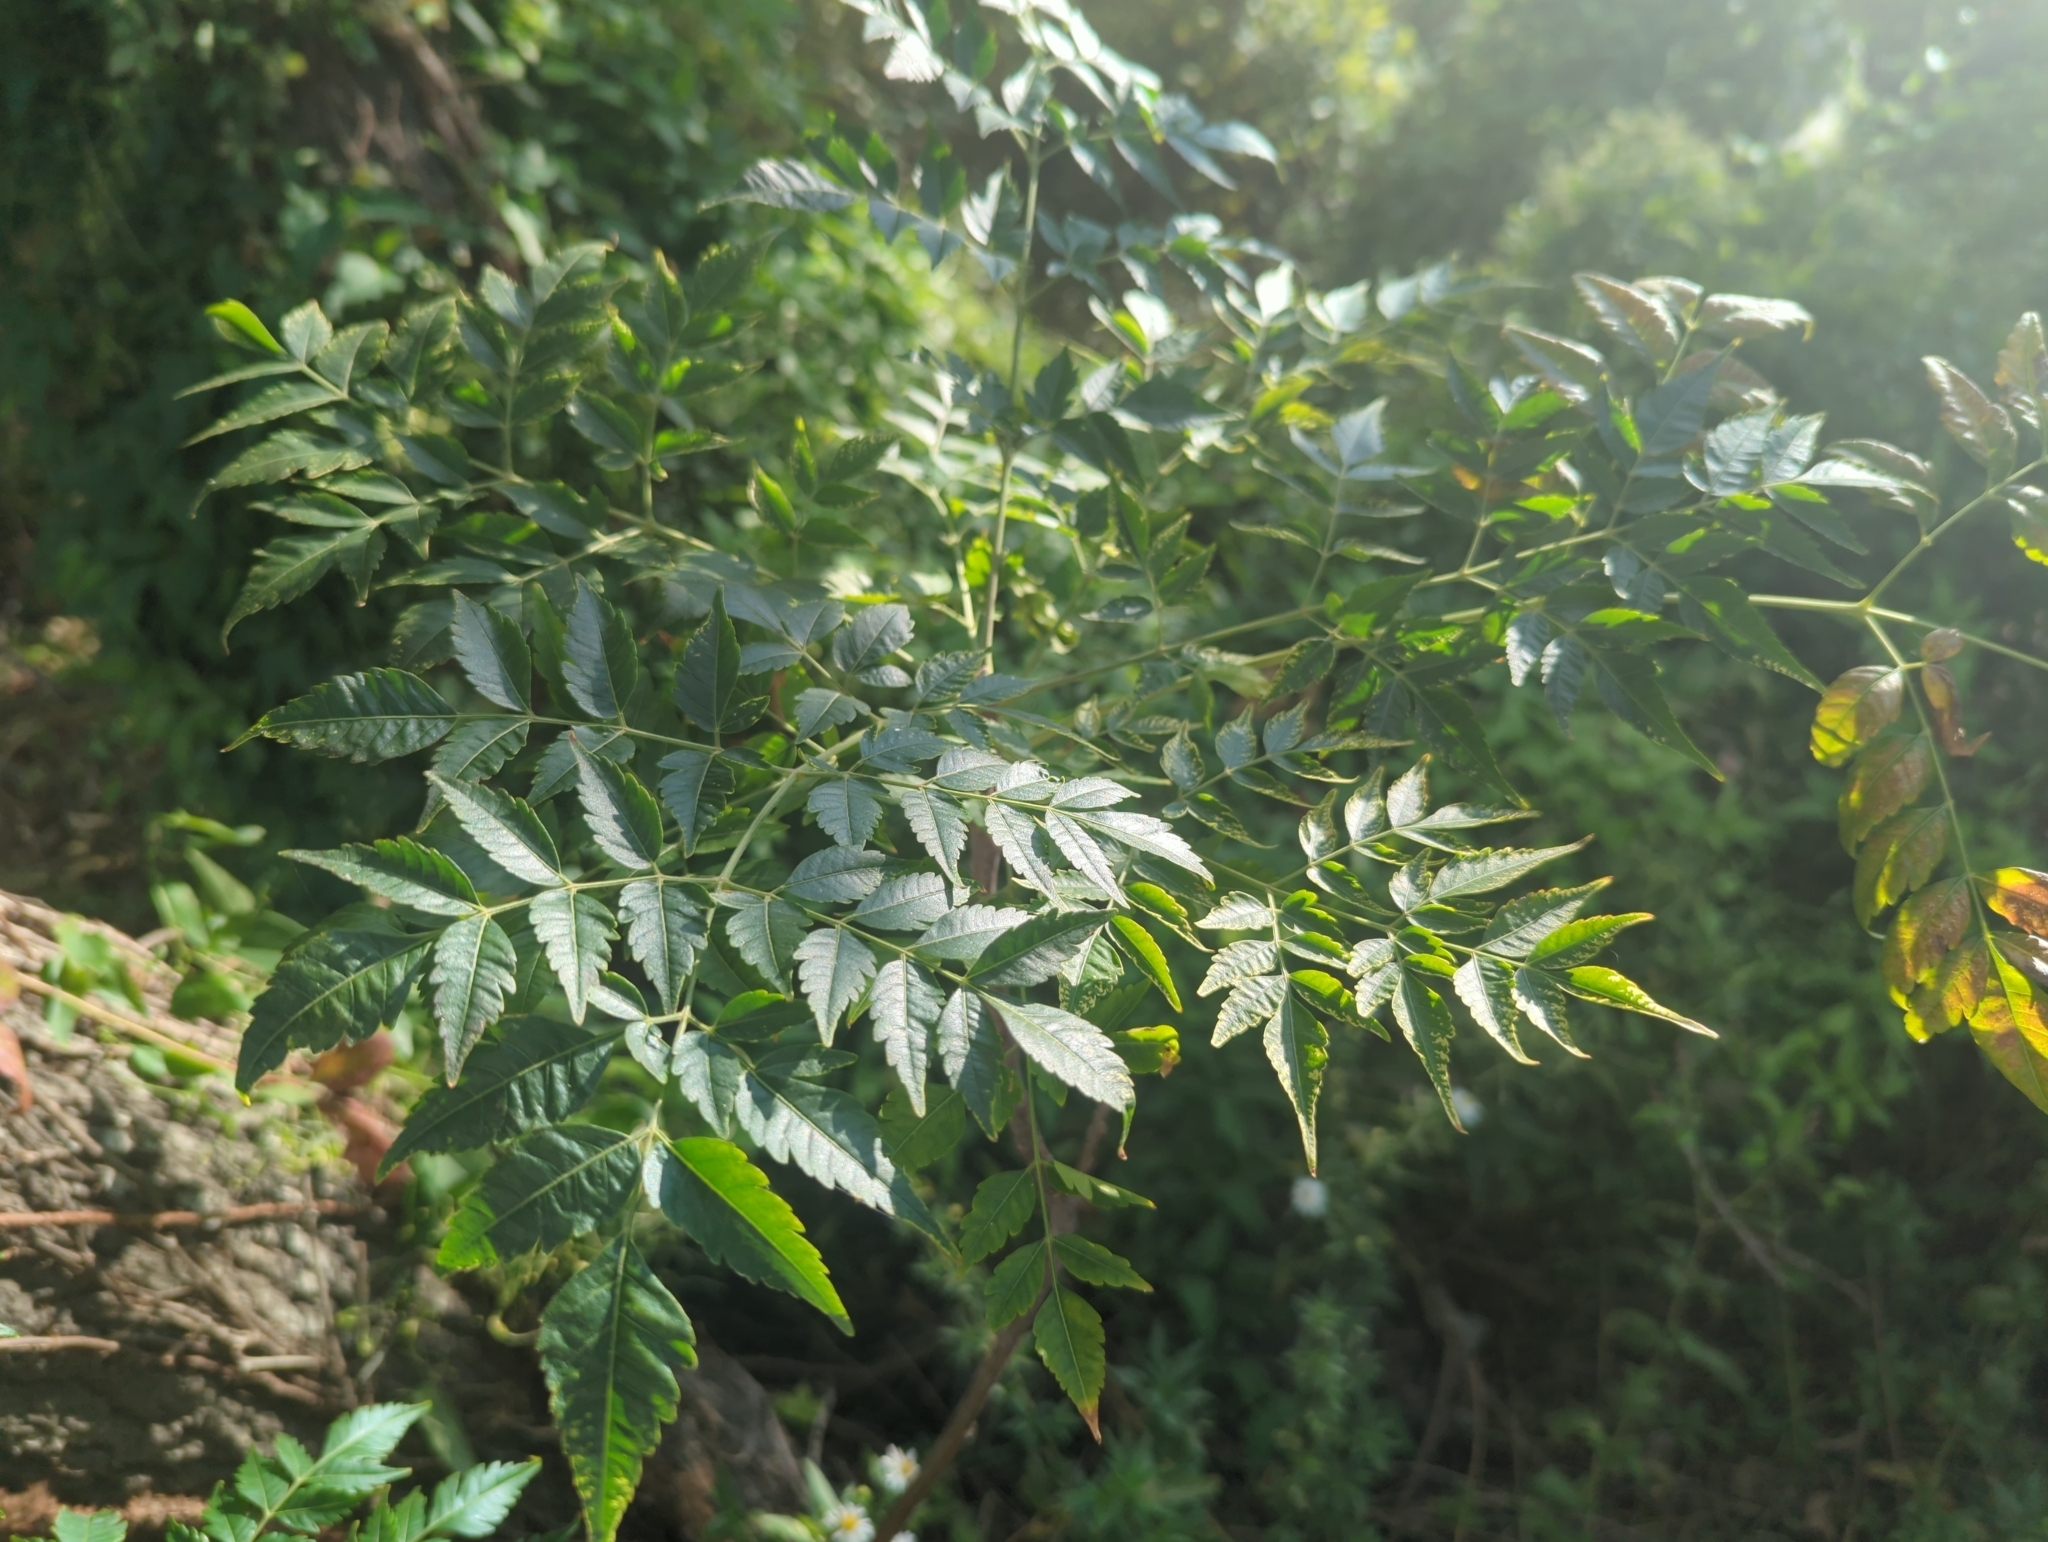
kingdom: Plantae
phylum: Tracheophyta
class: Magnoliopsida
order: Sapindales
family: Meliaceae
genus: Melia
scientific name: Melia azedarach
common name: Chinaberrytree
